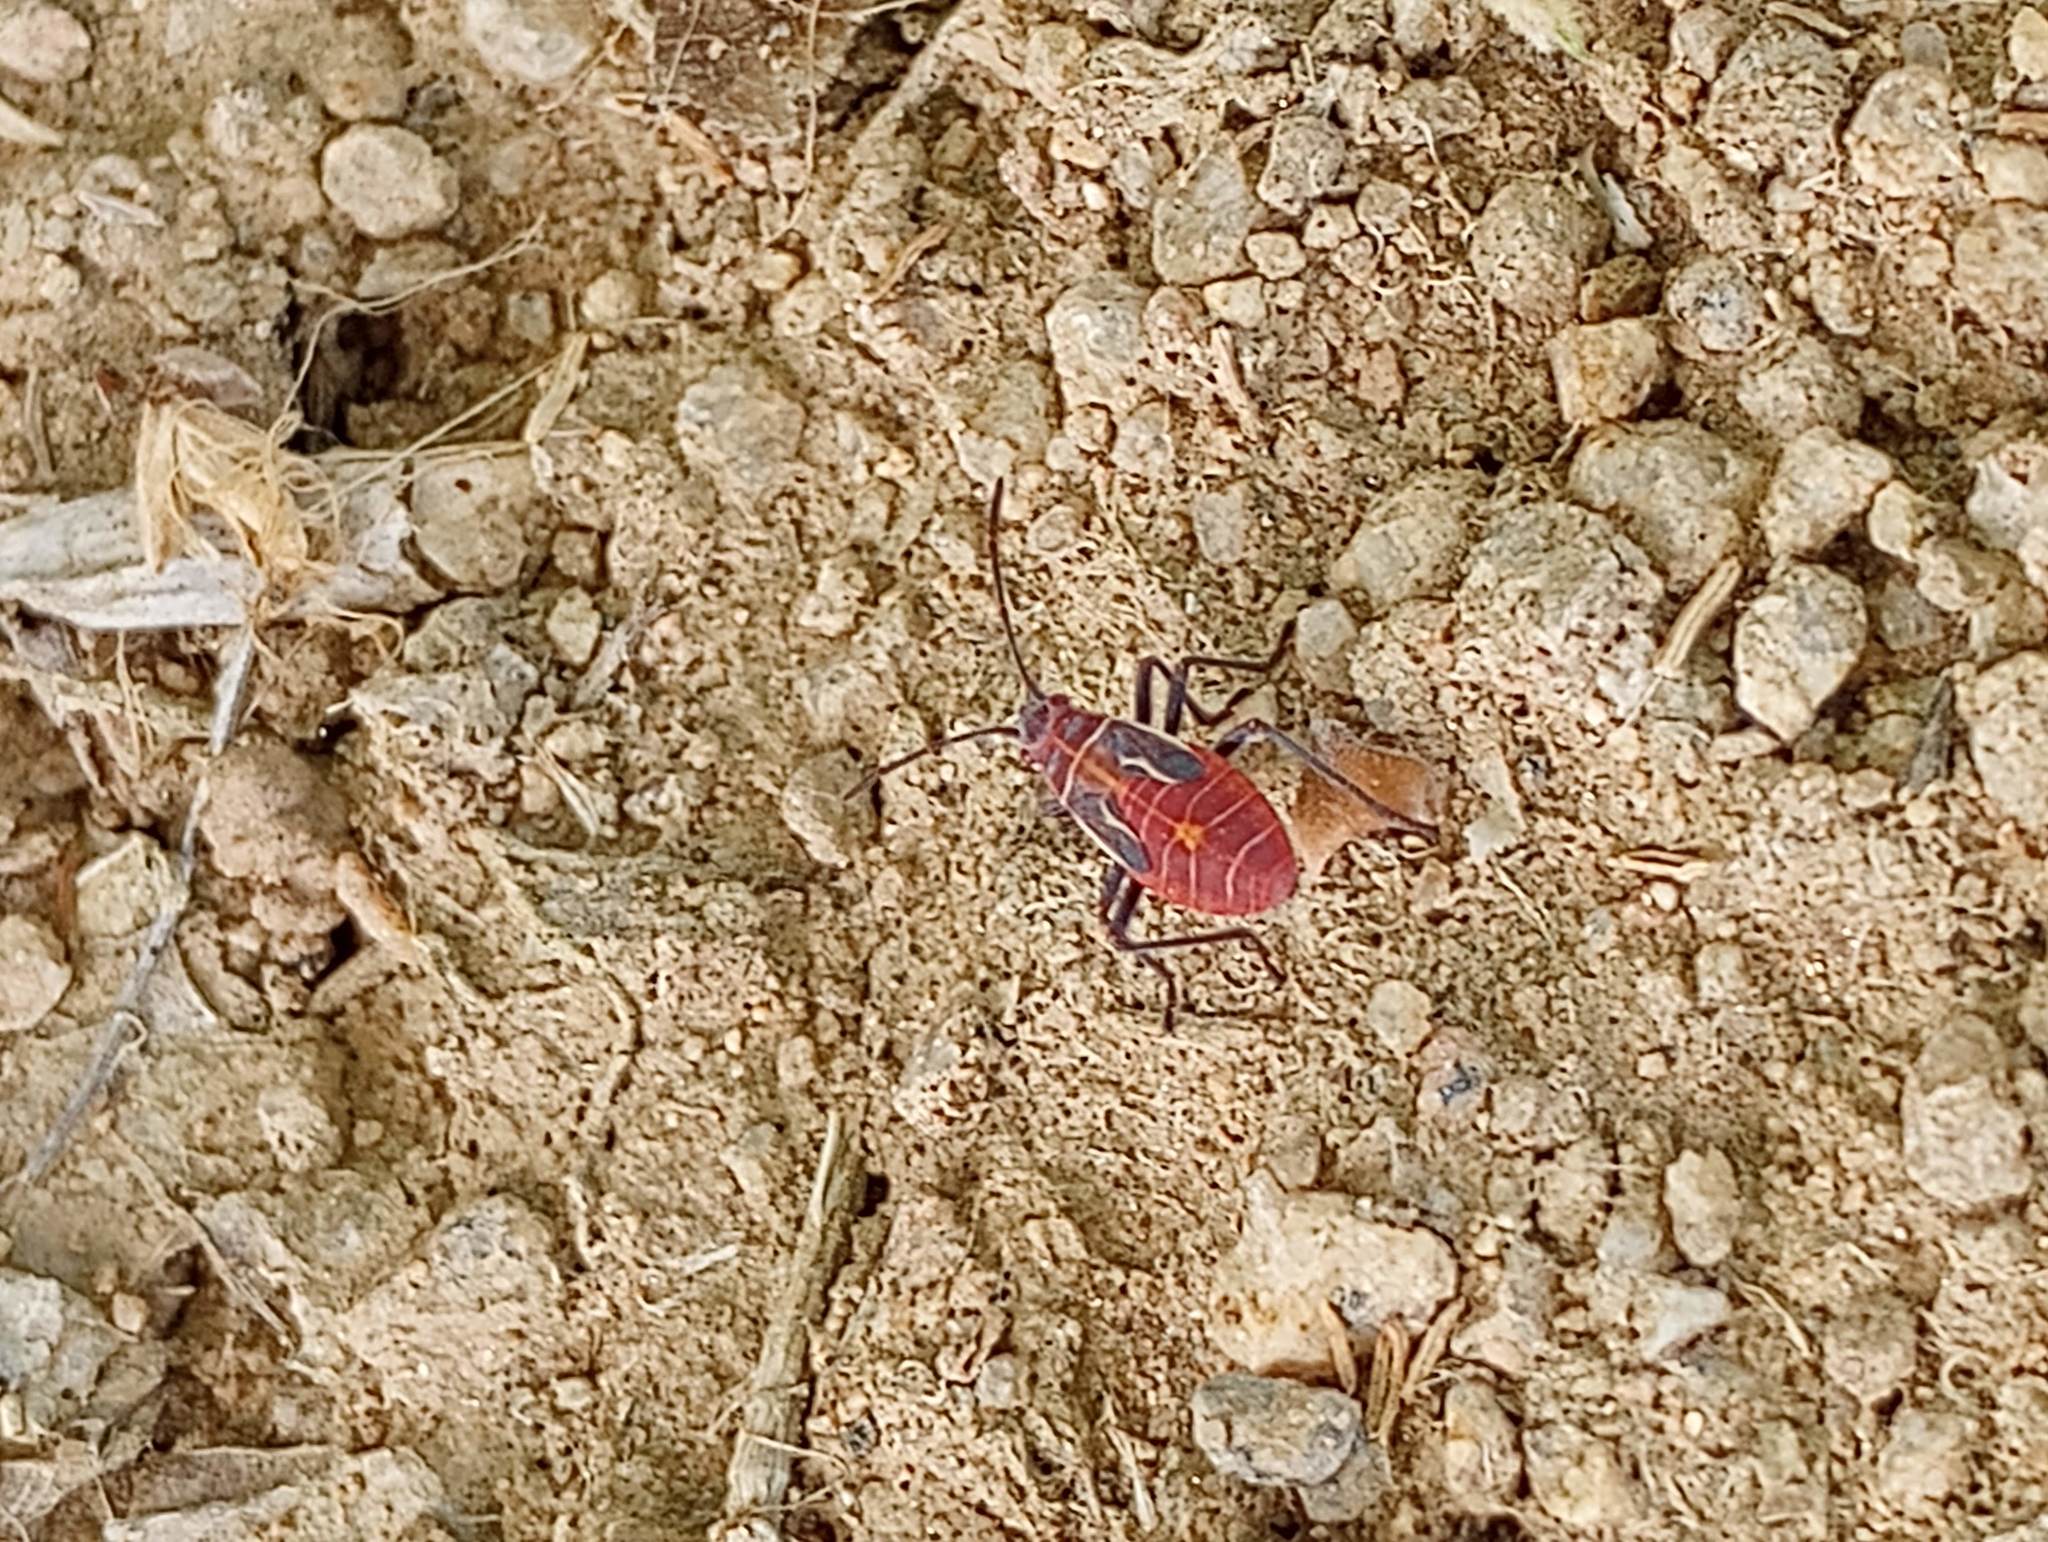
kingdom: Animalia
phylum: Arthropoda
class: Insecta
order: Hemiptera
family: Rhopalidae
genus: Boisea
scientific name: Boisea rubrolineata
